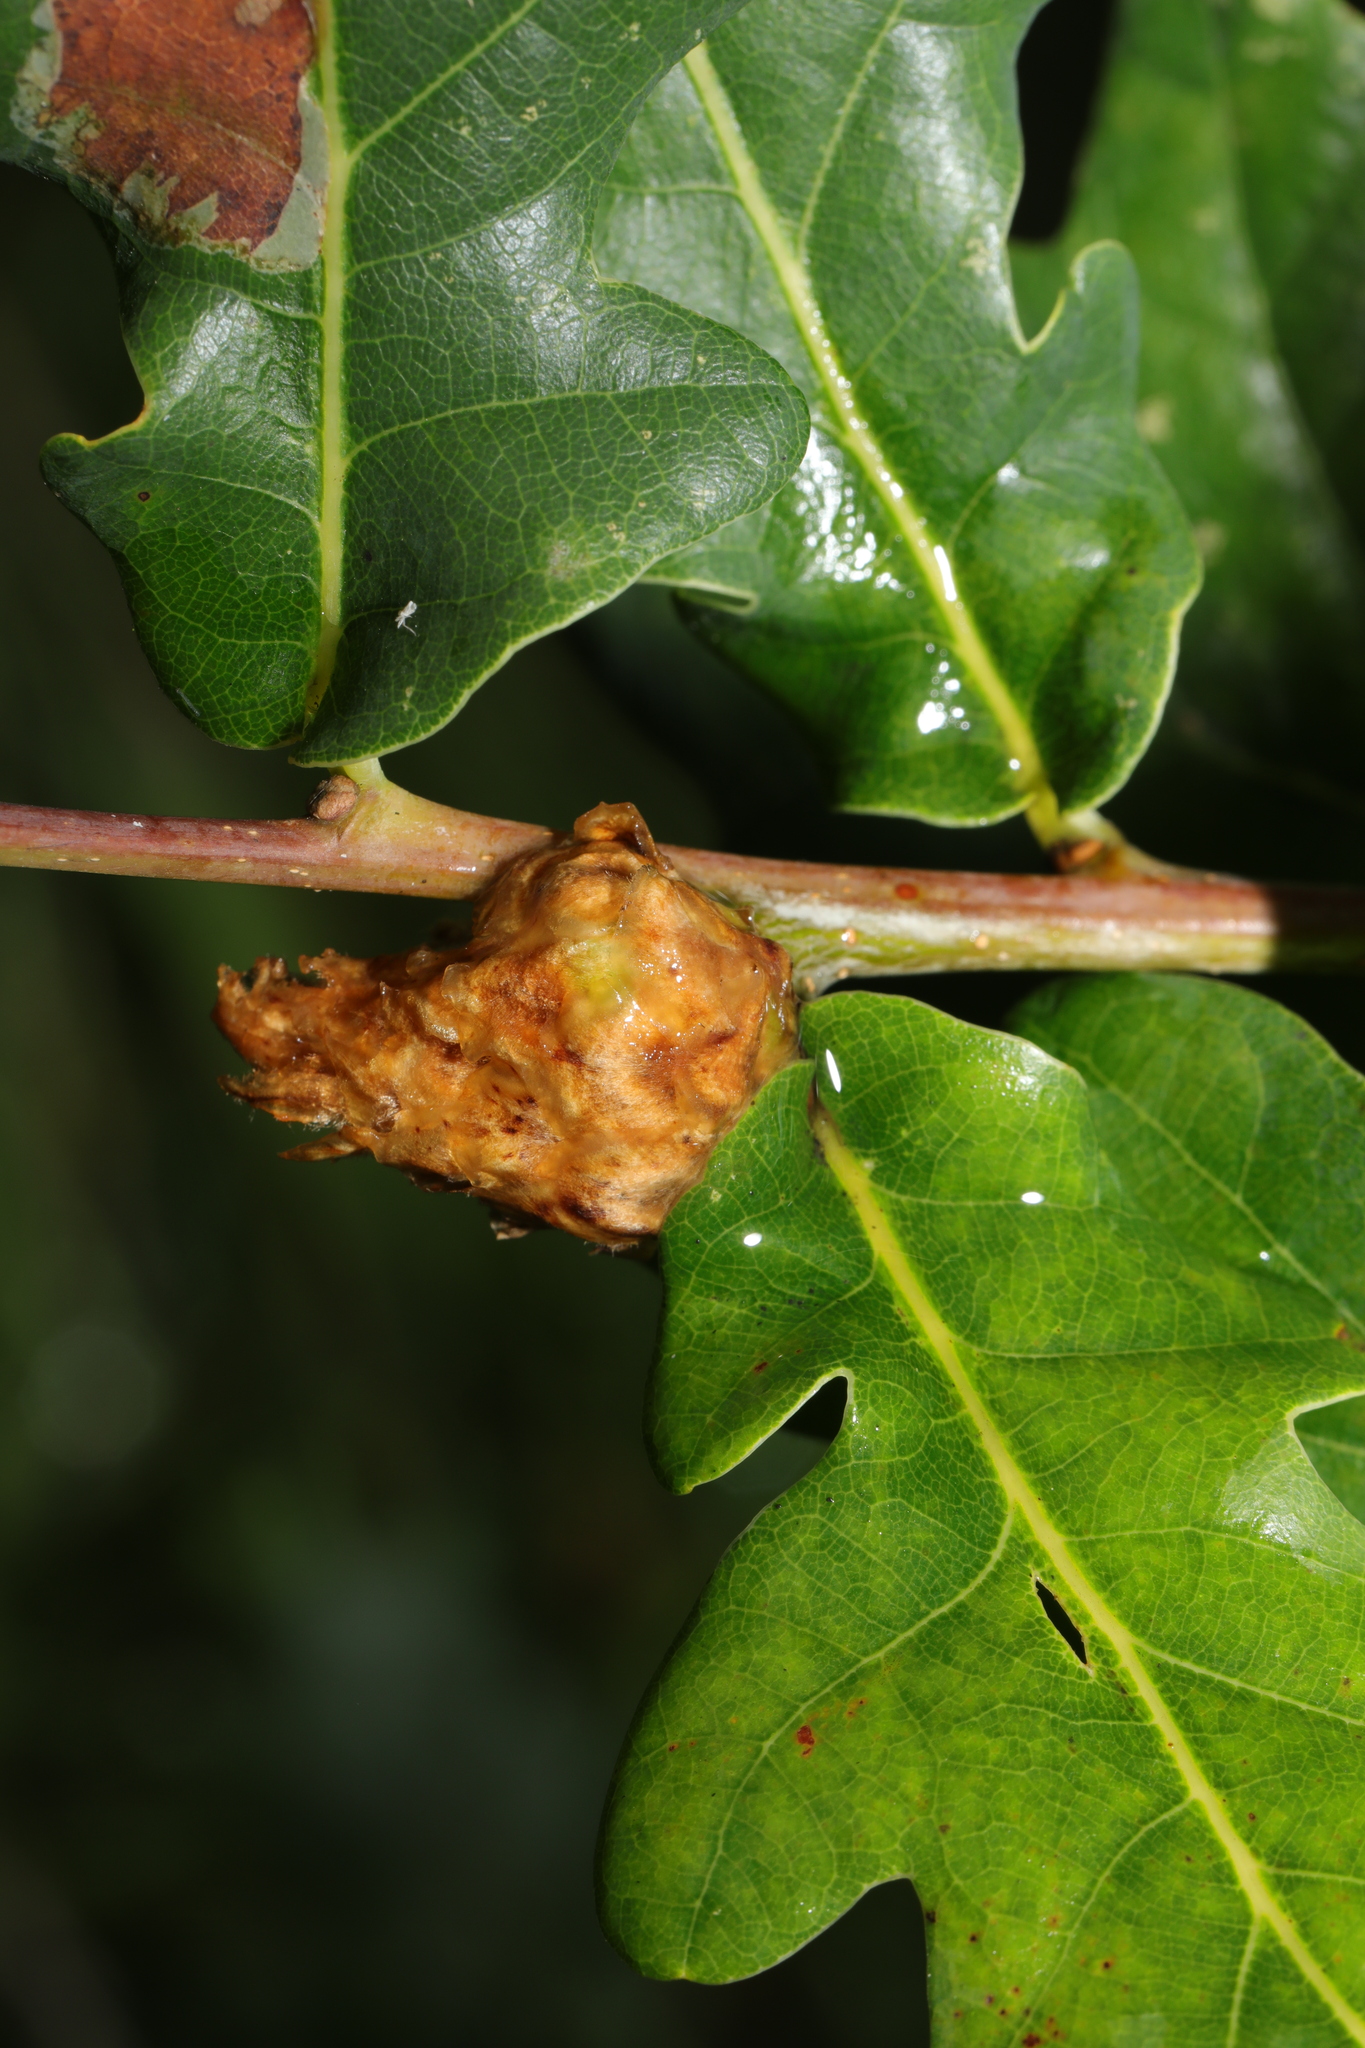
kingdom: Animalia
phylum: Arthropoda
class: Insecta
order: Hymenoptera
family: Cynipidae
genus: Andricus
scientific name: Andricus foecundatrix
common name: Artichoke gall
